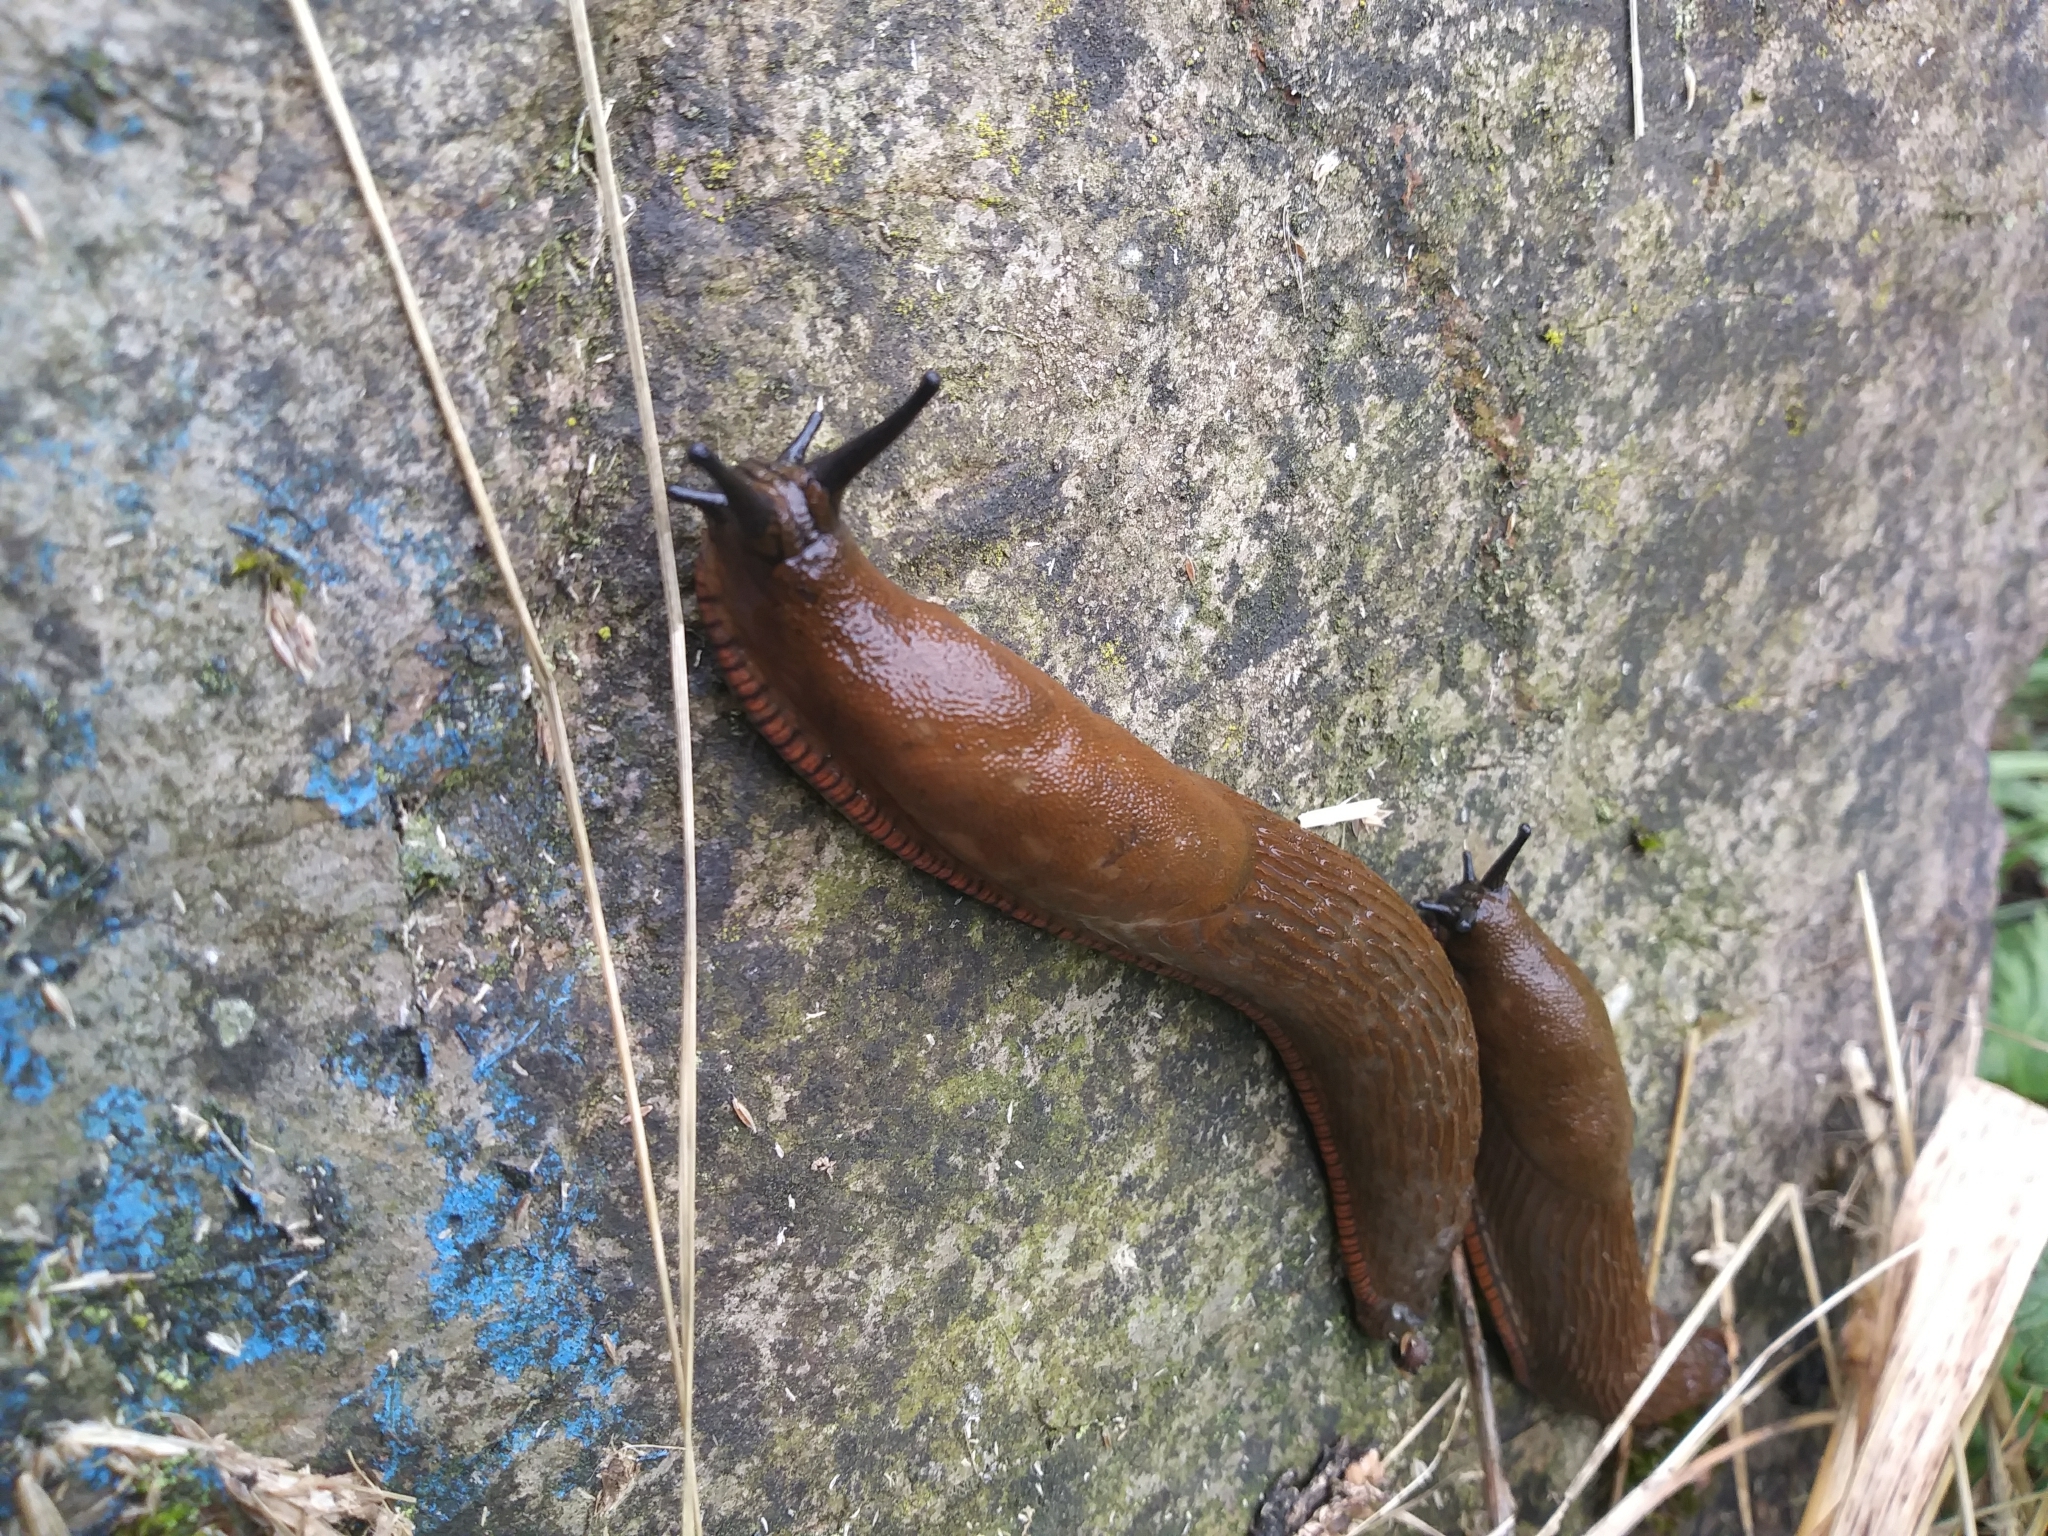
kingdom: Animalia
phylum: Mollusca
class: Gastropoda
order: Stylommatophora
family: Arionidae
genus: Arion
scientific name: Arion rufus
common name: Chocolate arion
